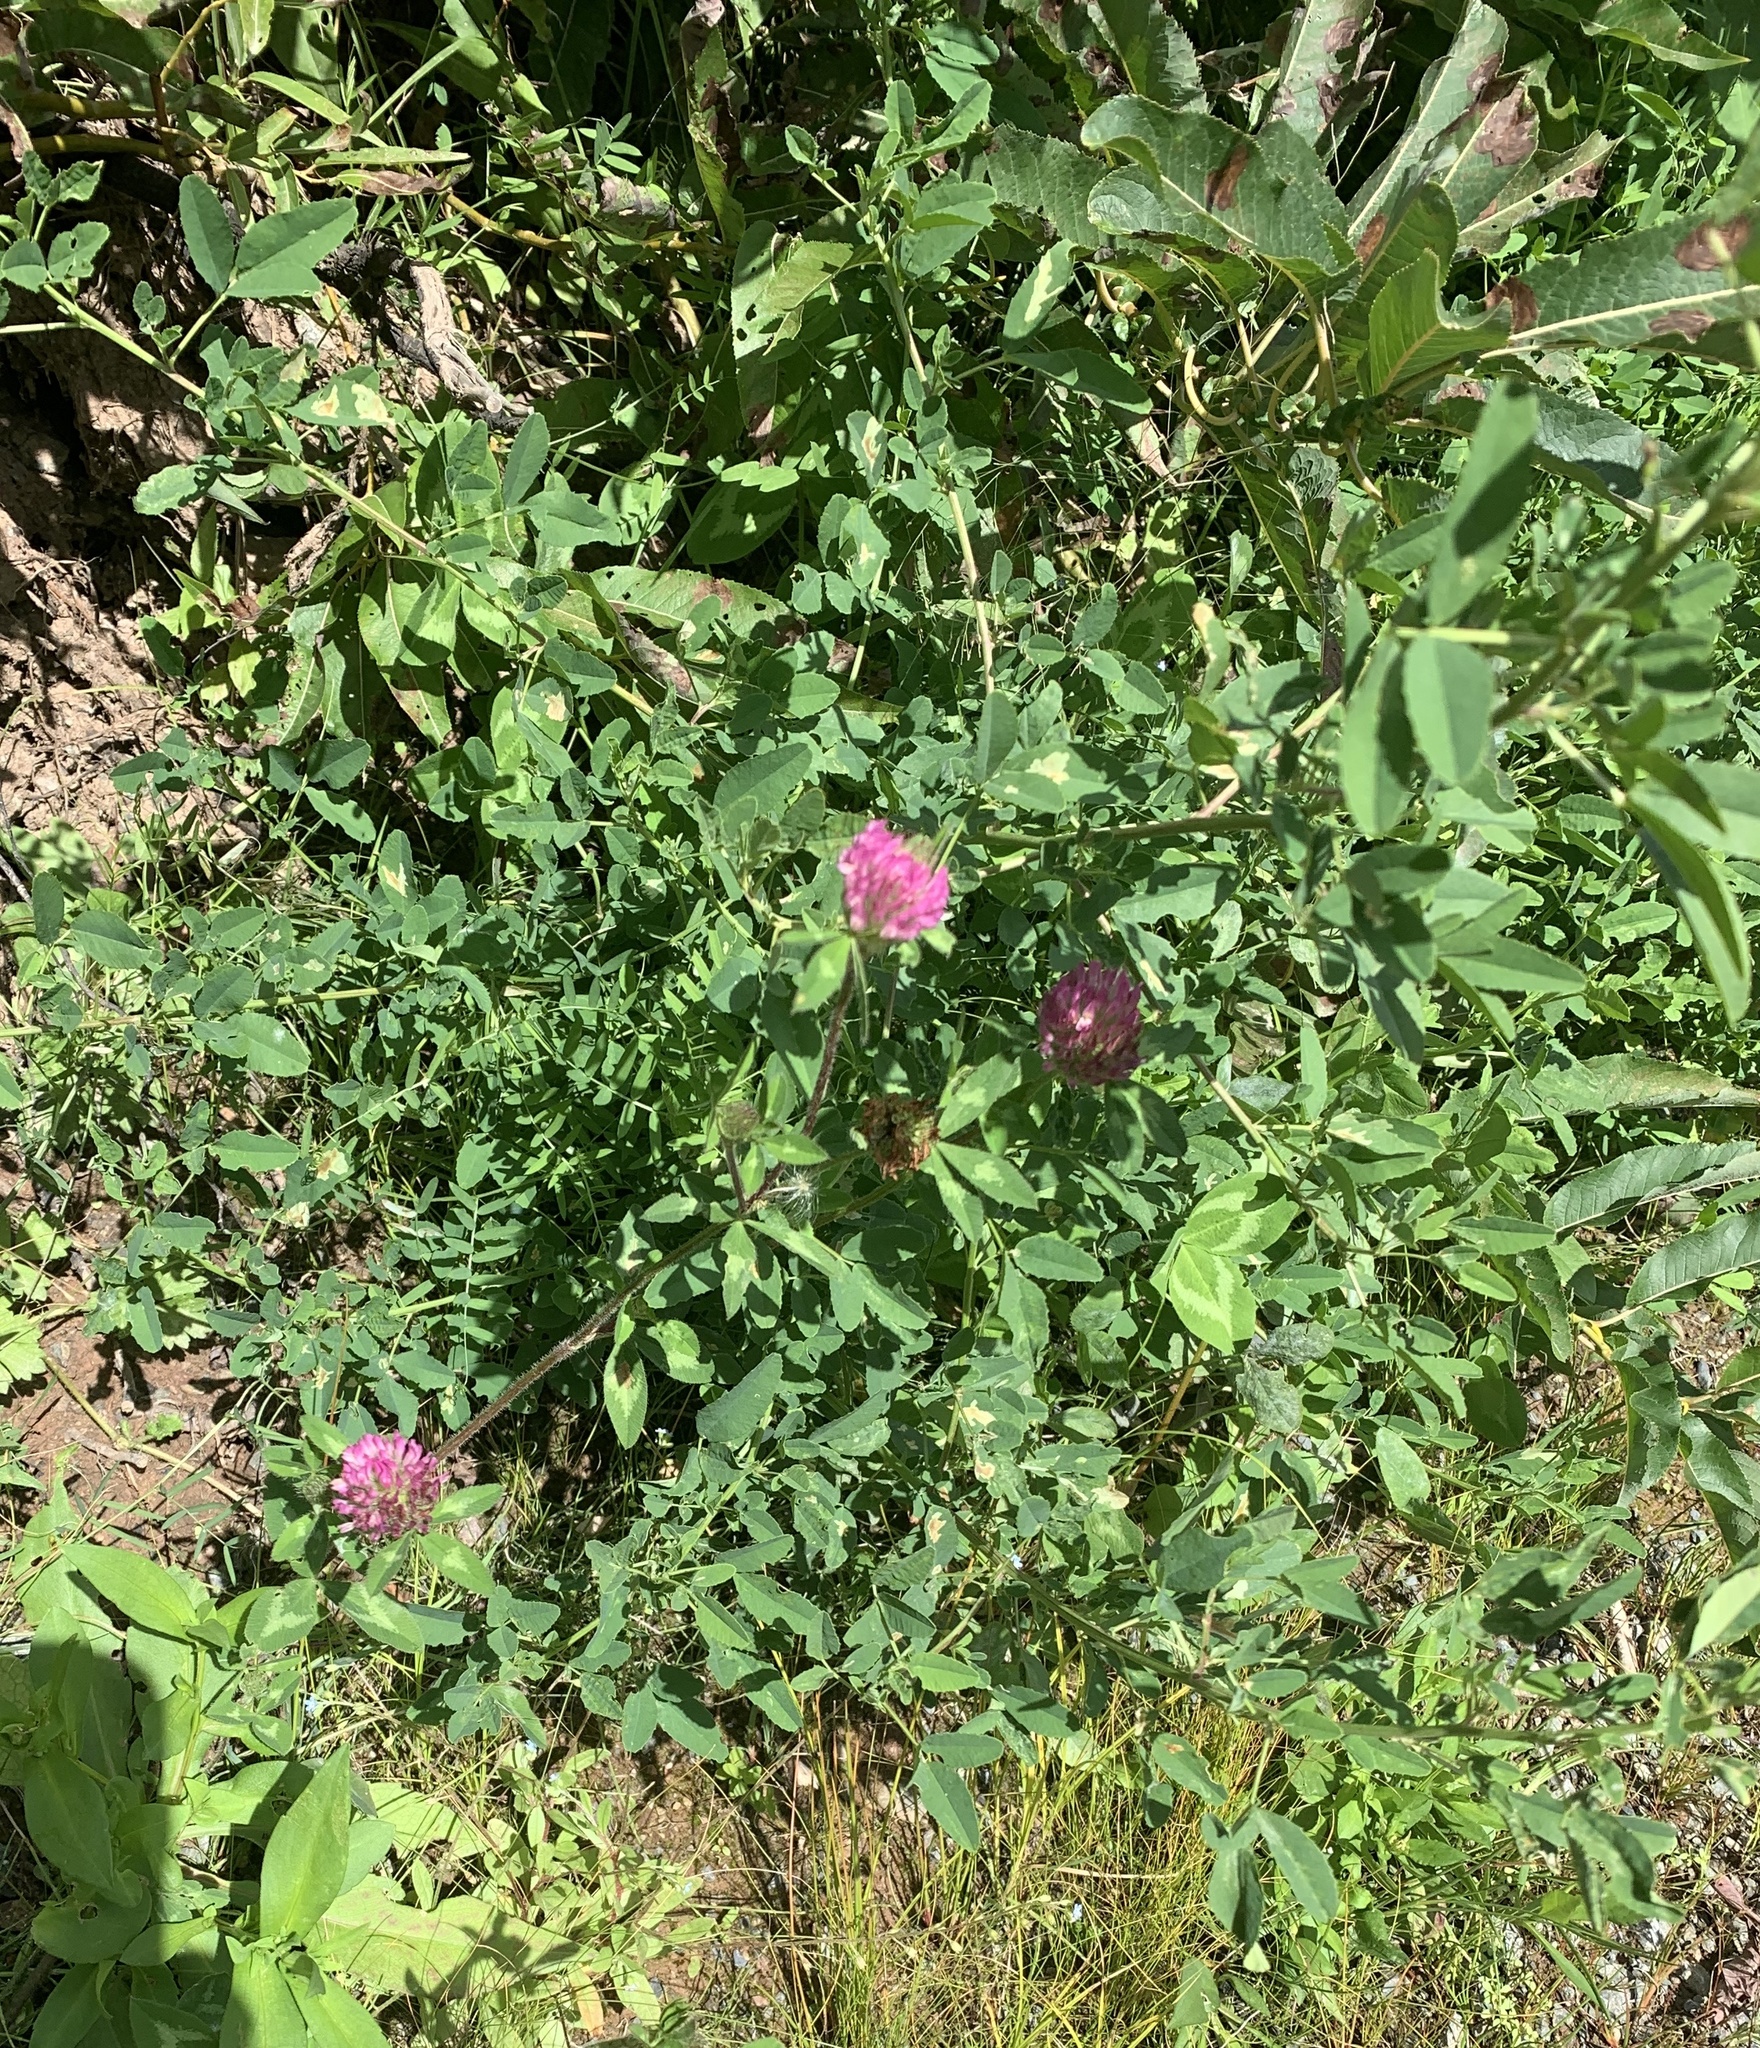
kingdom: Plantae
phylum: Tracheophyta
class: Magnoliopsida
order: Fabales
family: Fabaceae
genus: Trifolium
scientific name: Trifolium pratense
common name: Red clover
